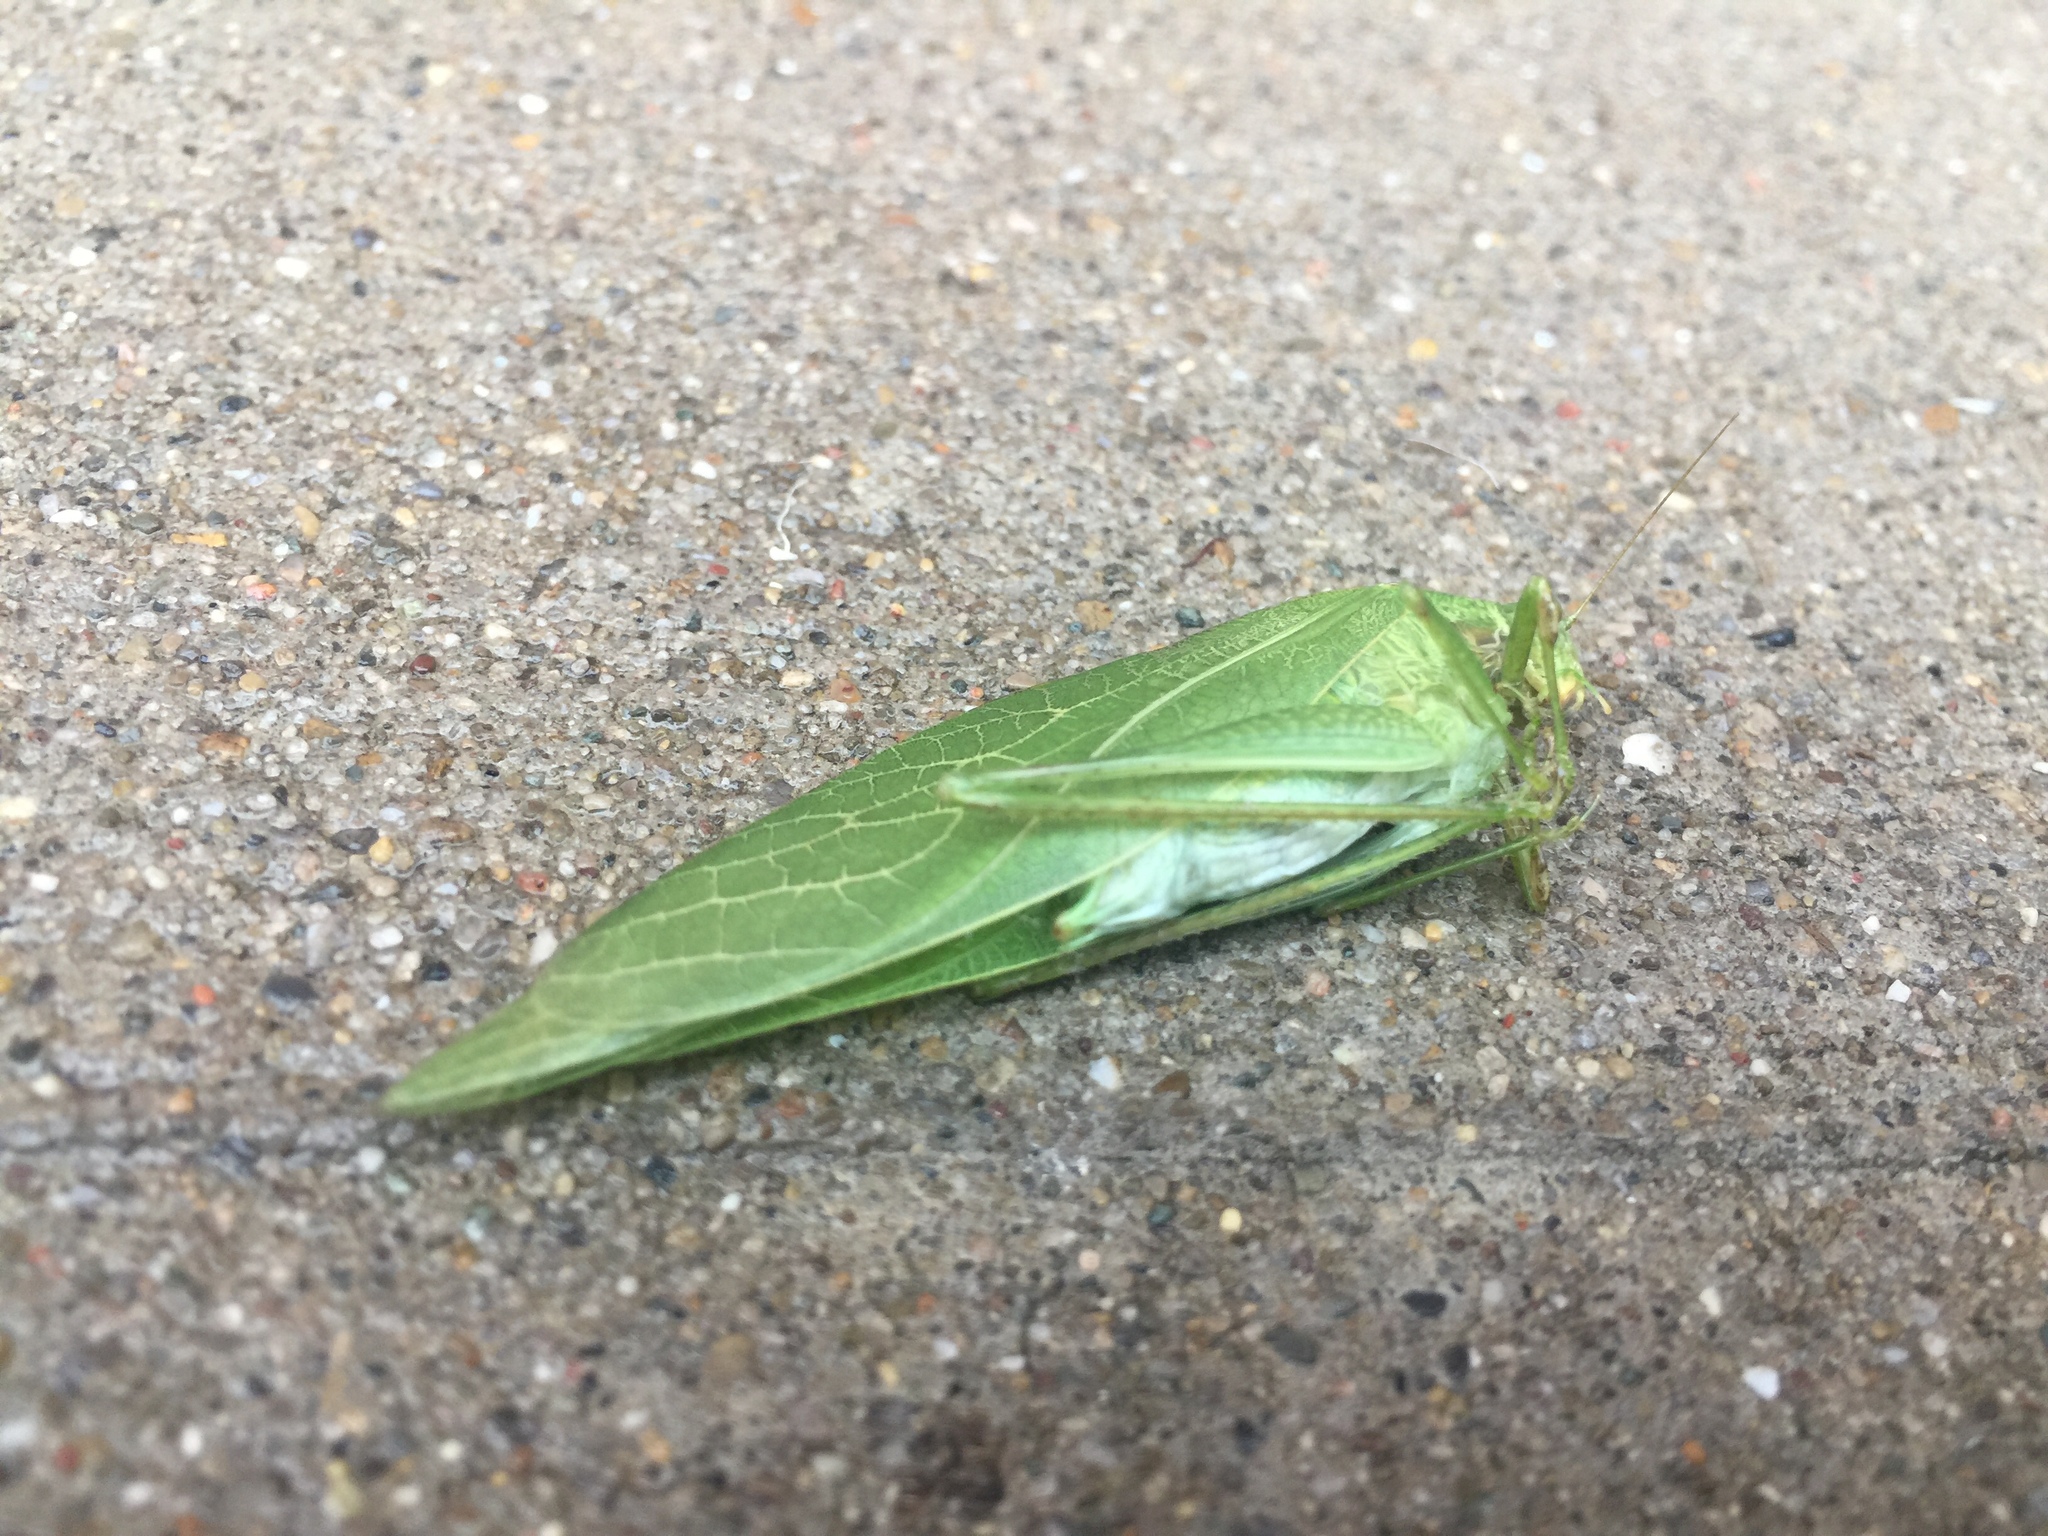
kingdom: Animalia
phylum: Arthropoda
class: Insecta
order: Orthoptera
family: Tettigoniidae
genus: Microcentrum
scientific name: Microcentrum retinerve
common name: Angular-winged katydid
